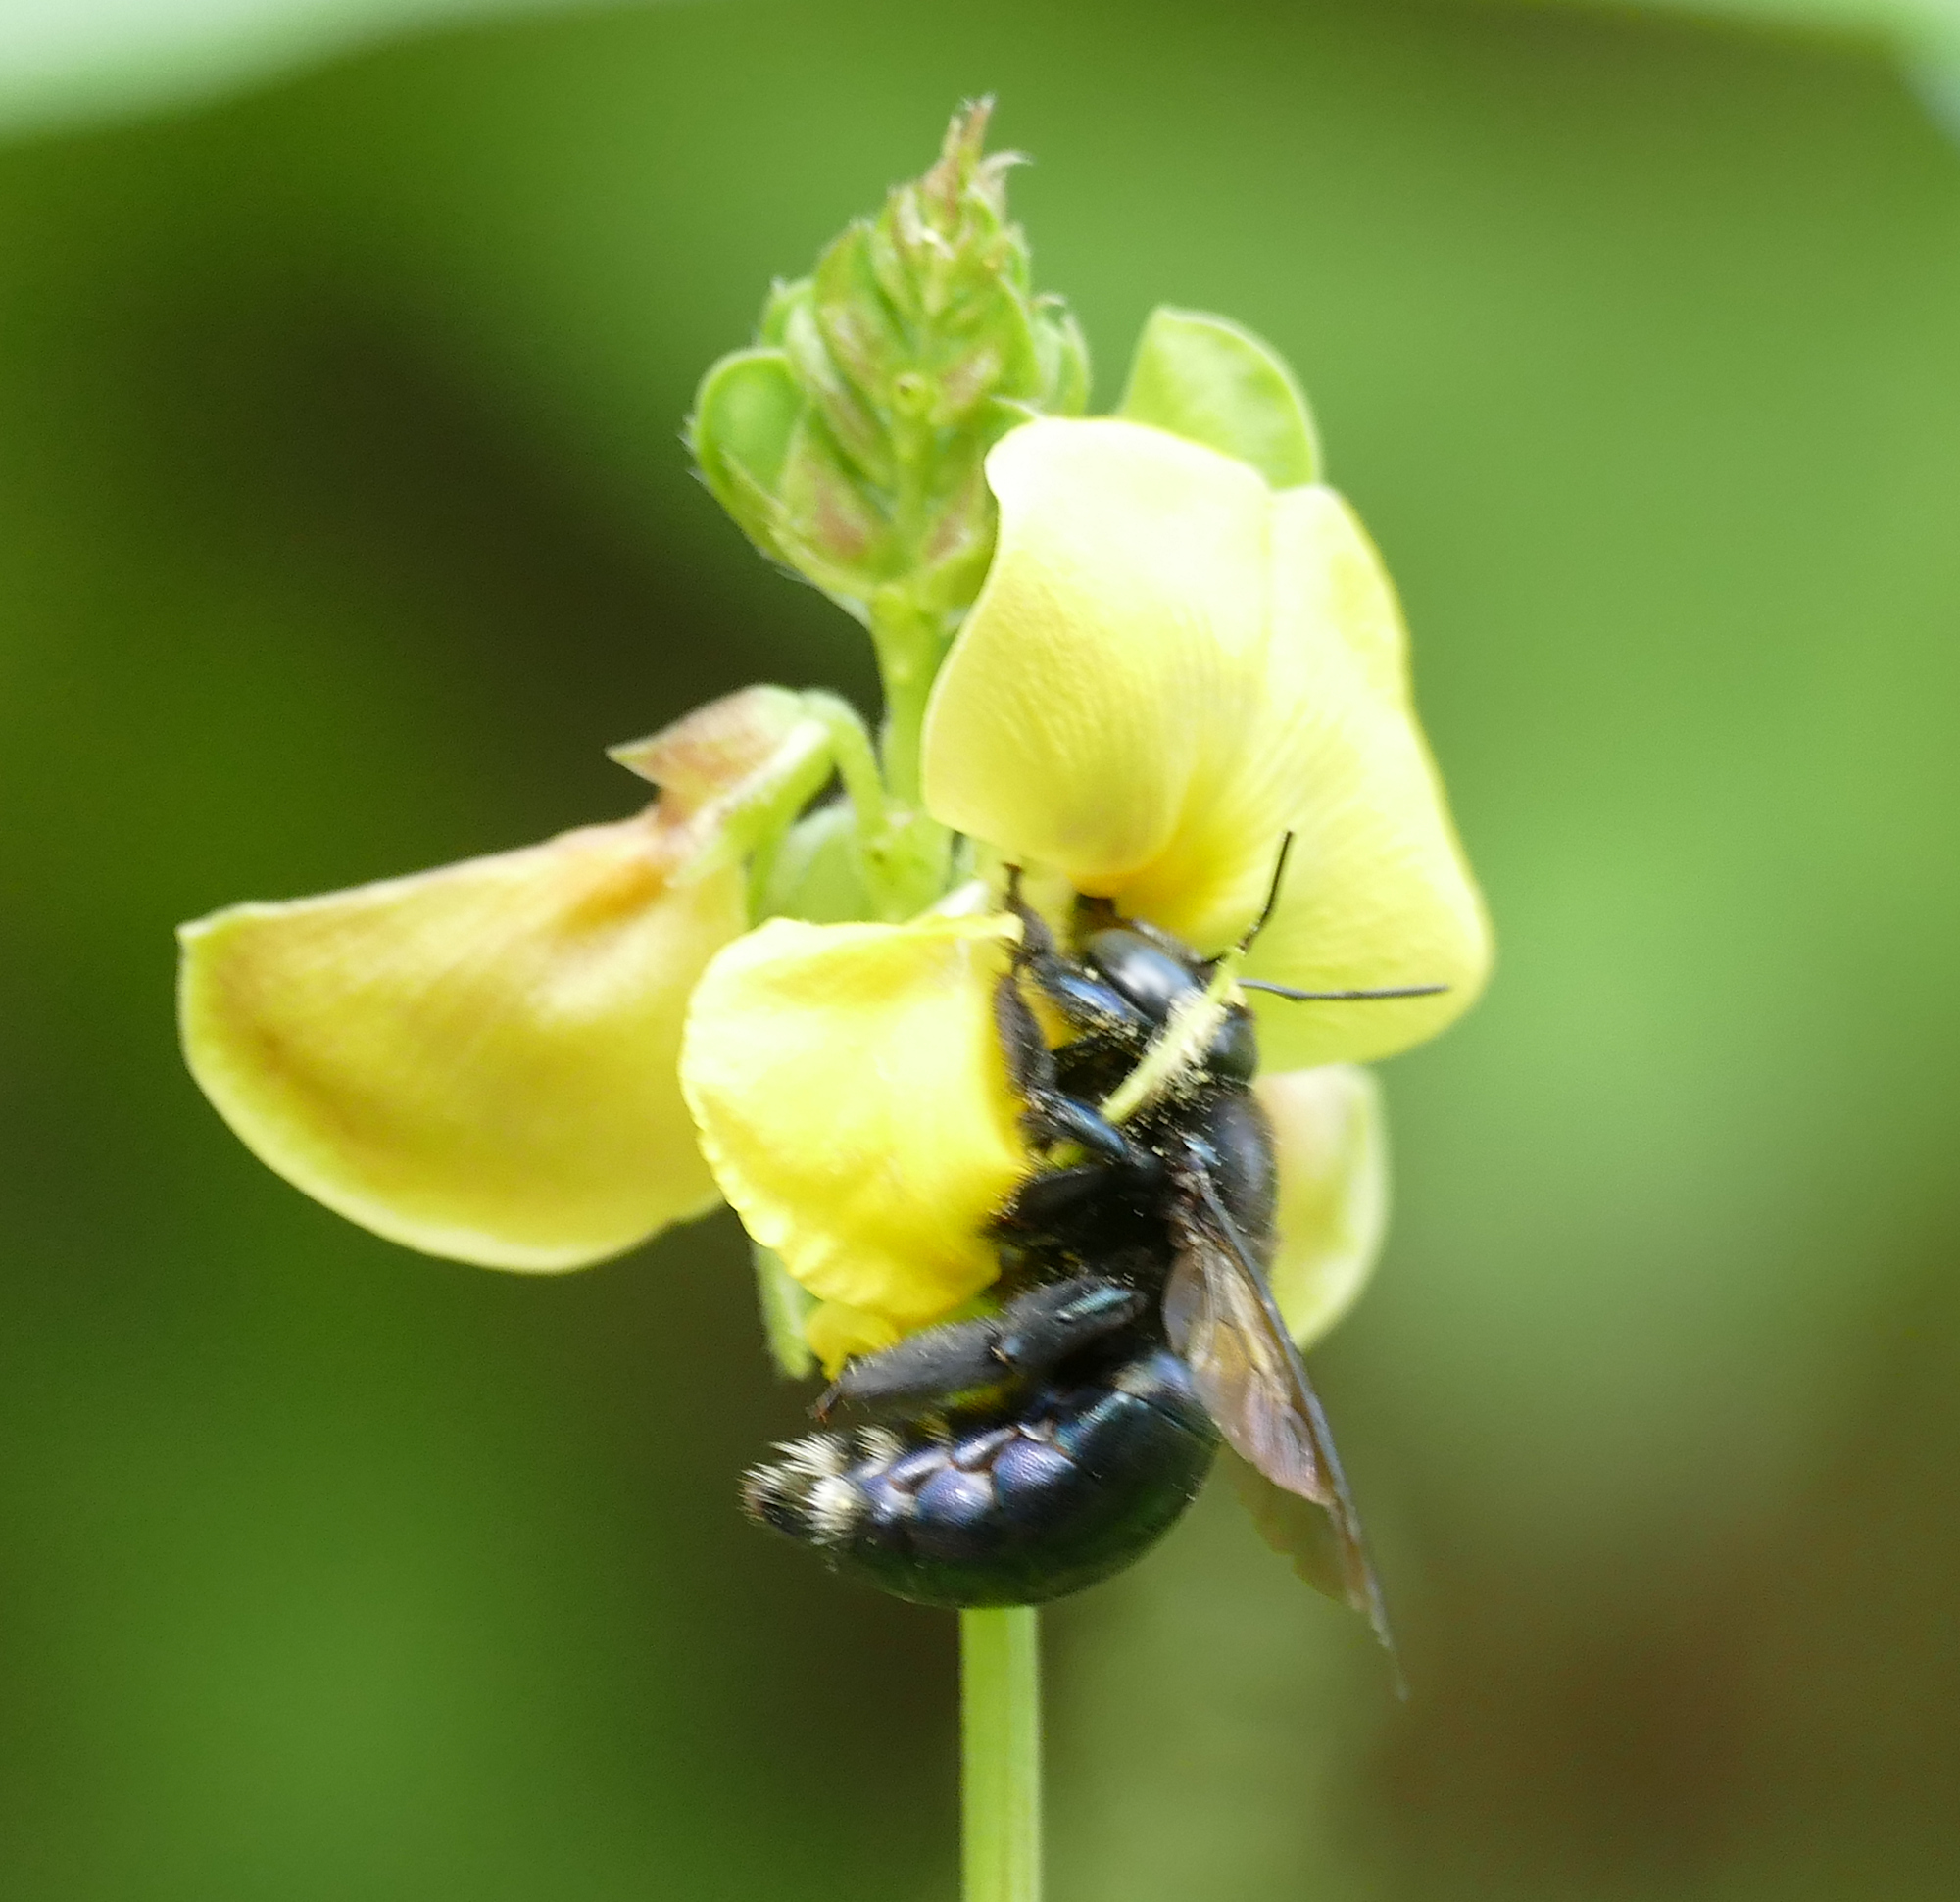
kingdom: Animalia
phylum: Arthropoda
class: Insecta
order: Hymenoptera
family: Apidae
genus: Xylocopa
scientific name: Xylocopa micans
